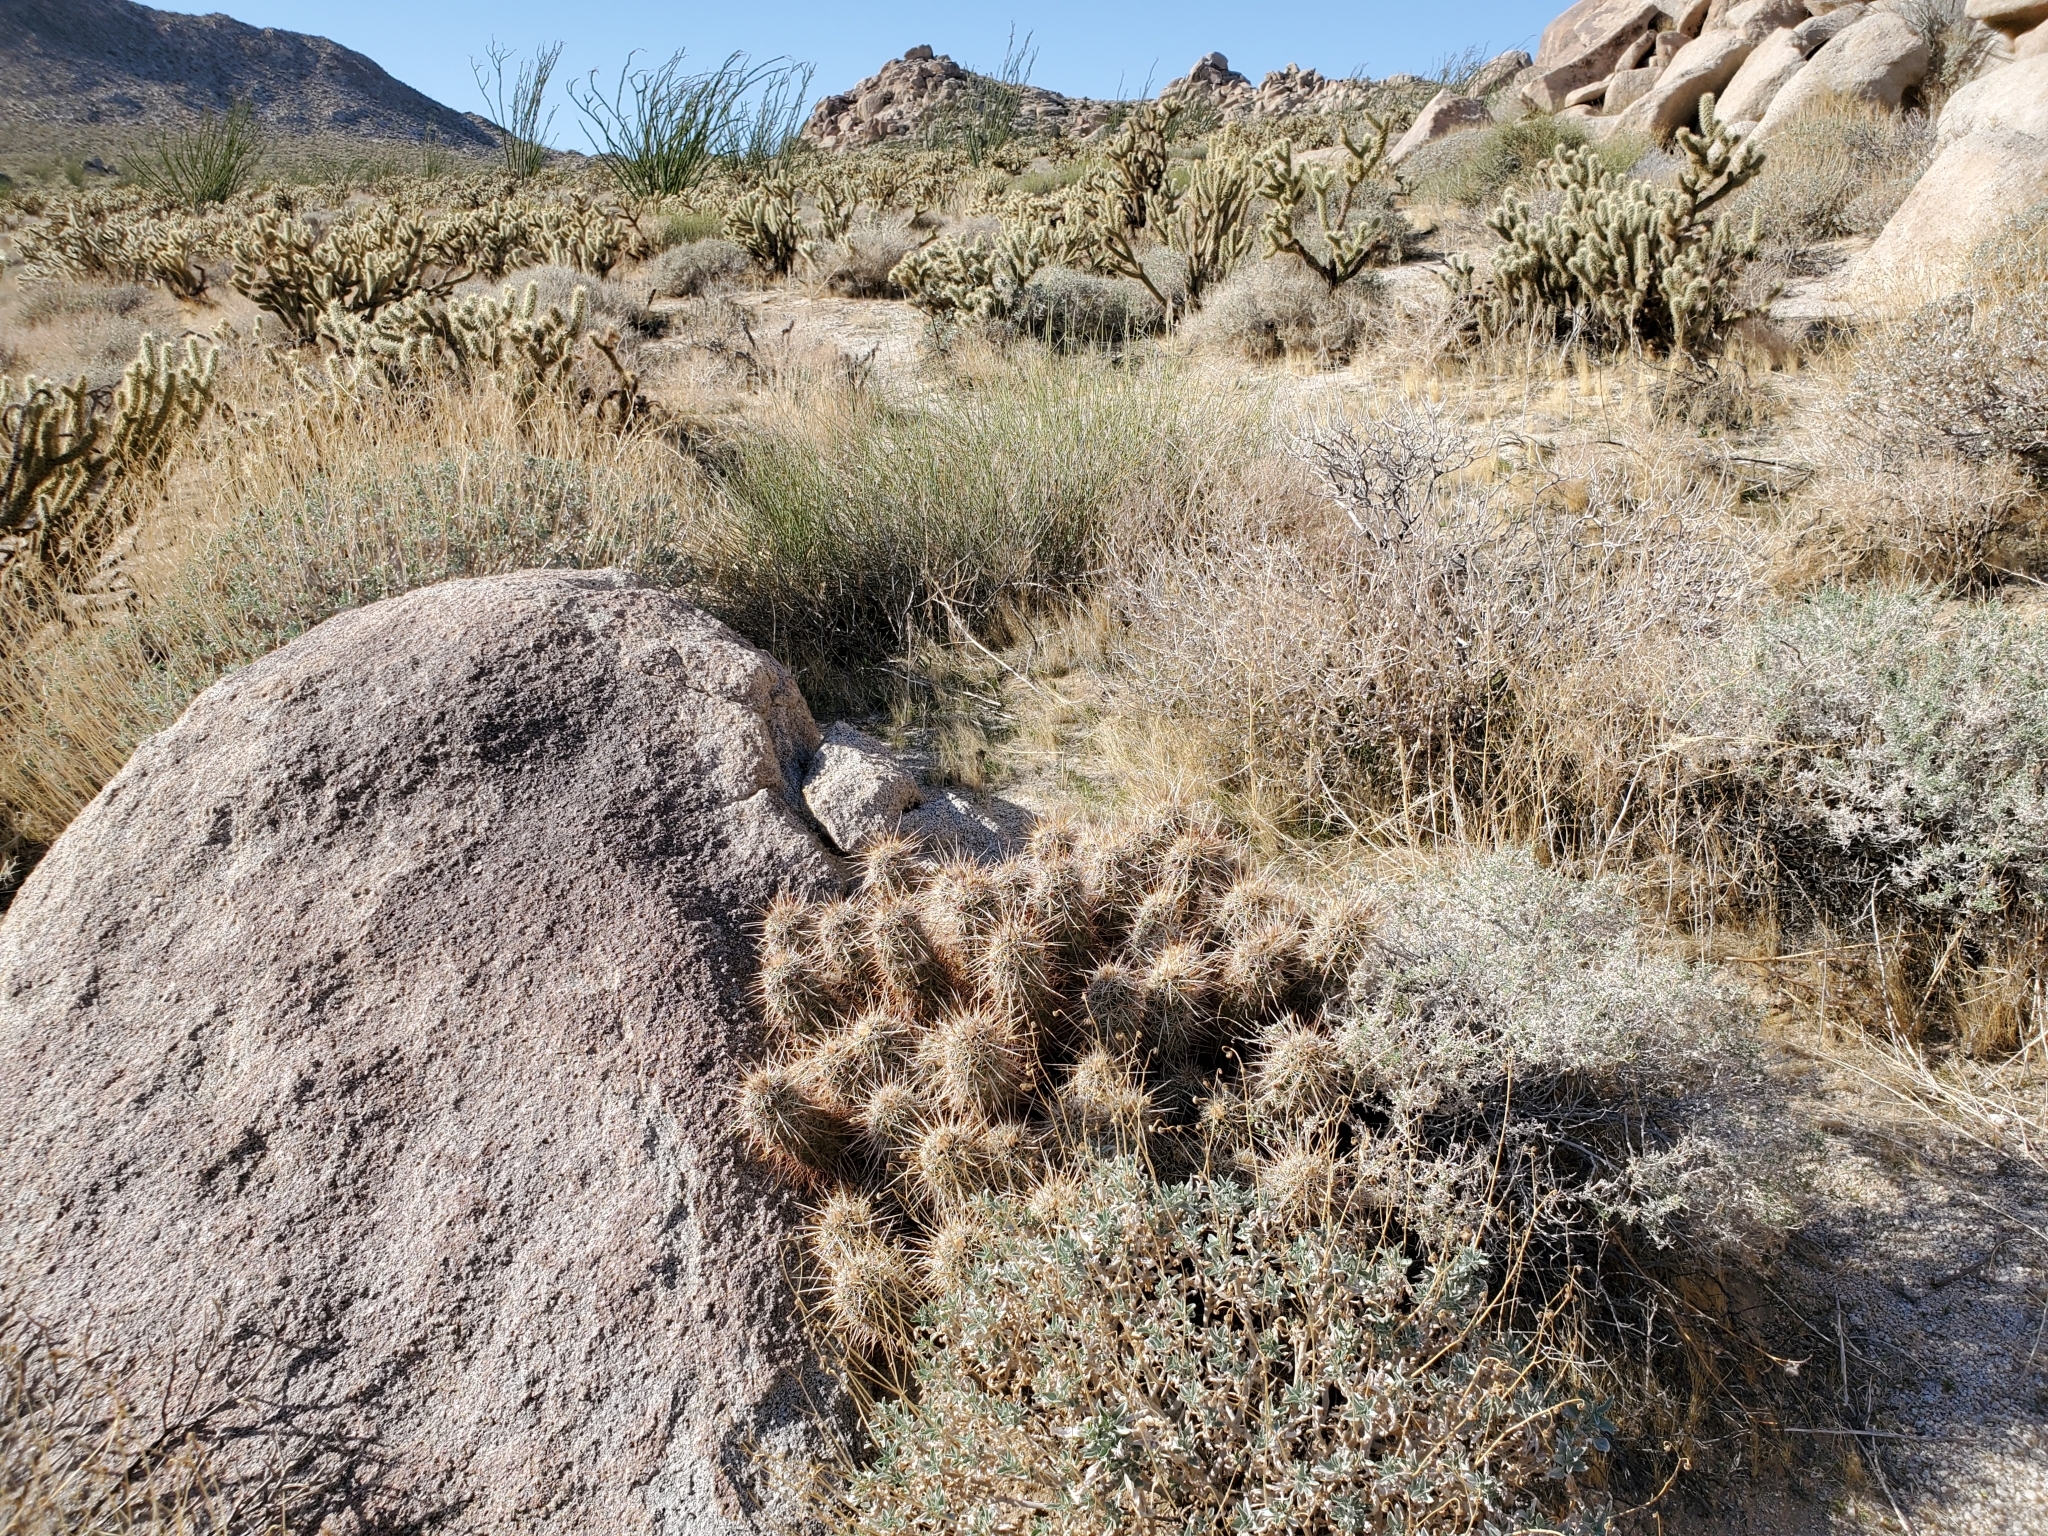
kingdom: Plantae
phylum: Tracheophyta
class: Magnoliopsida
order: Caryophyllales
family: Cactaceae
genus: Echinocereus
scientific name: Echinocereus engelmannii
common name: Engelmann's hedgehog cactus
